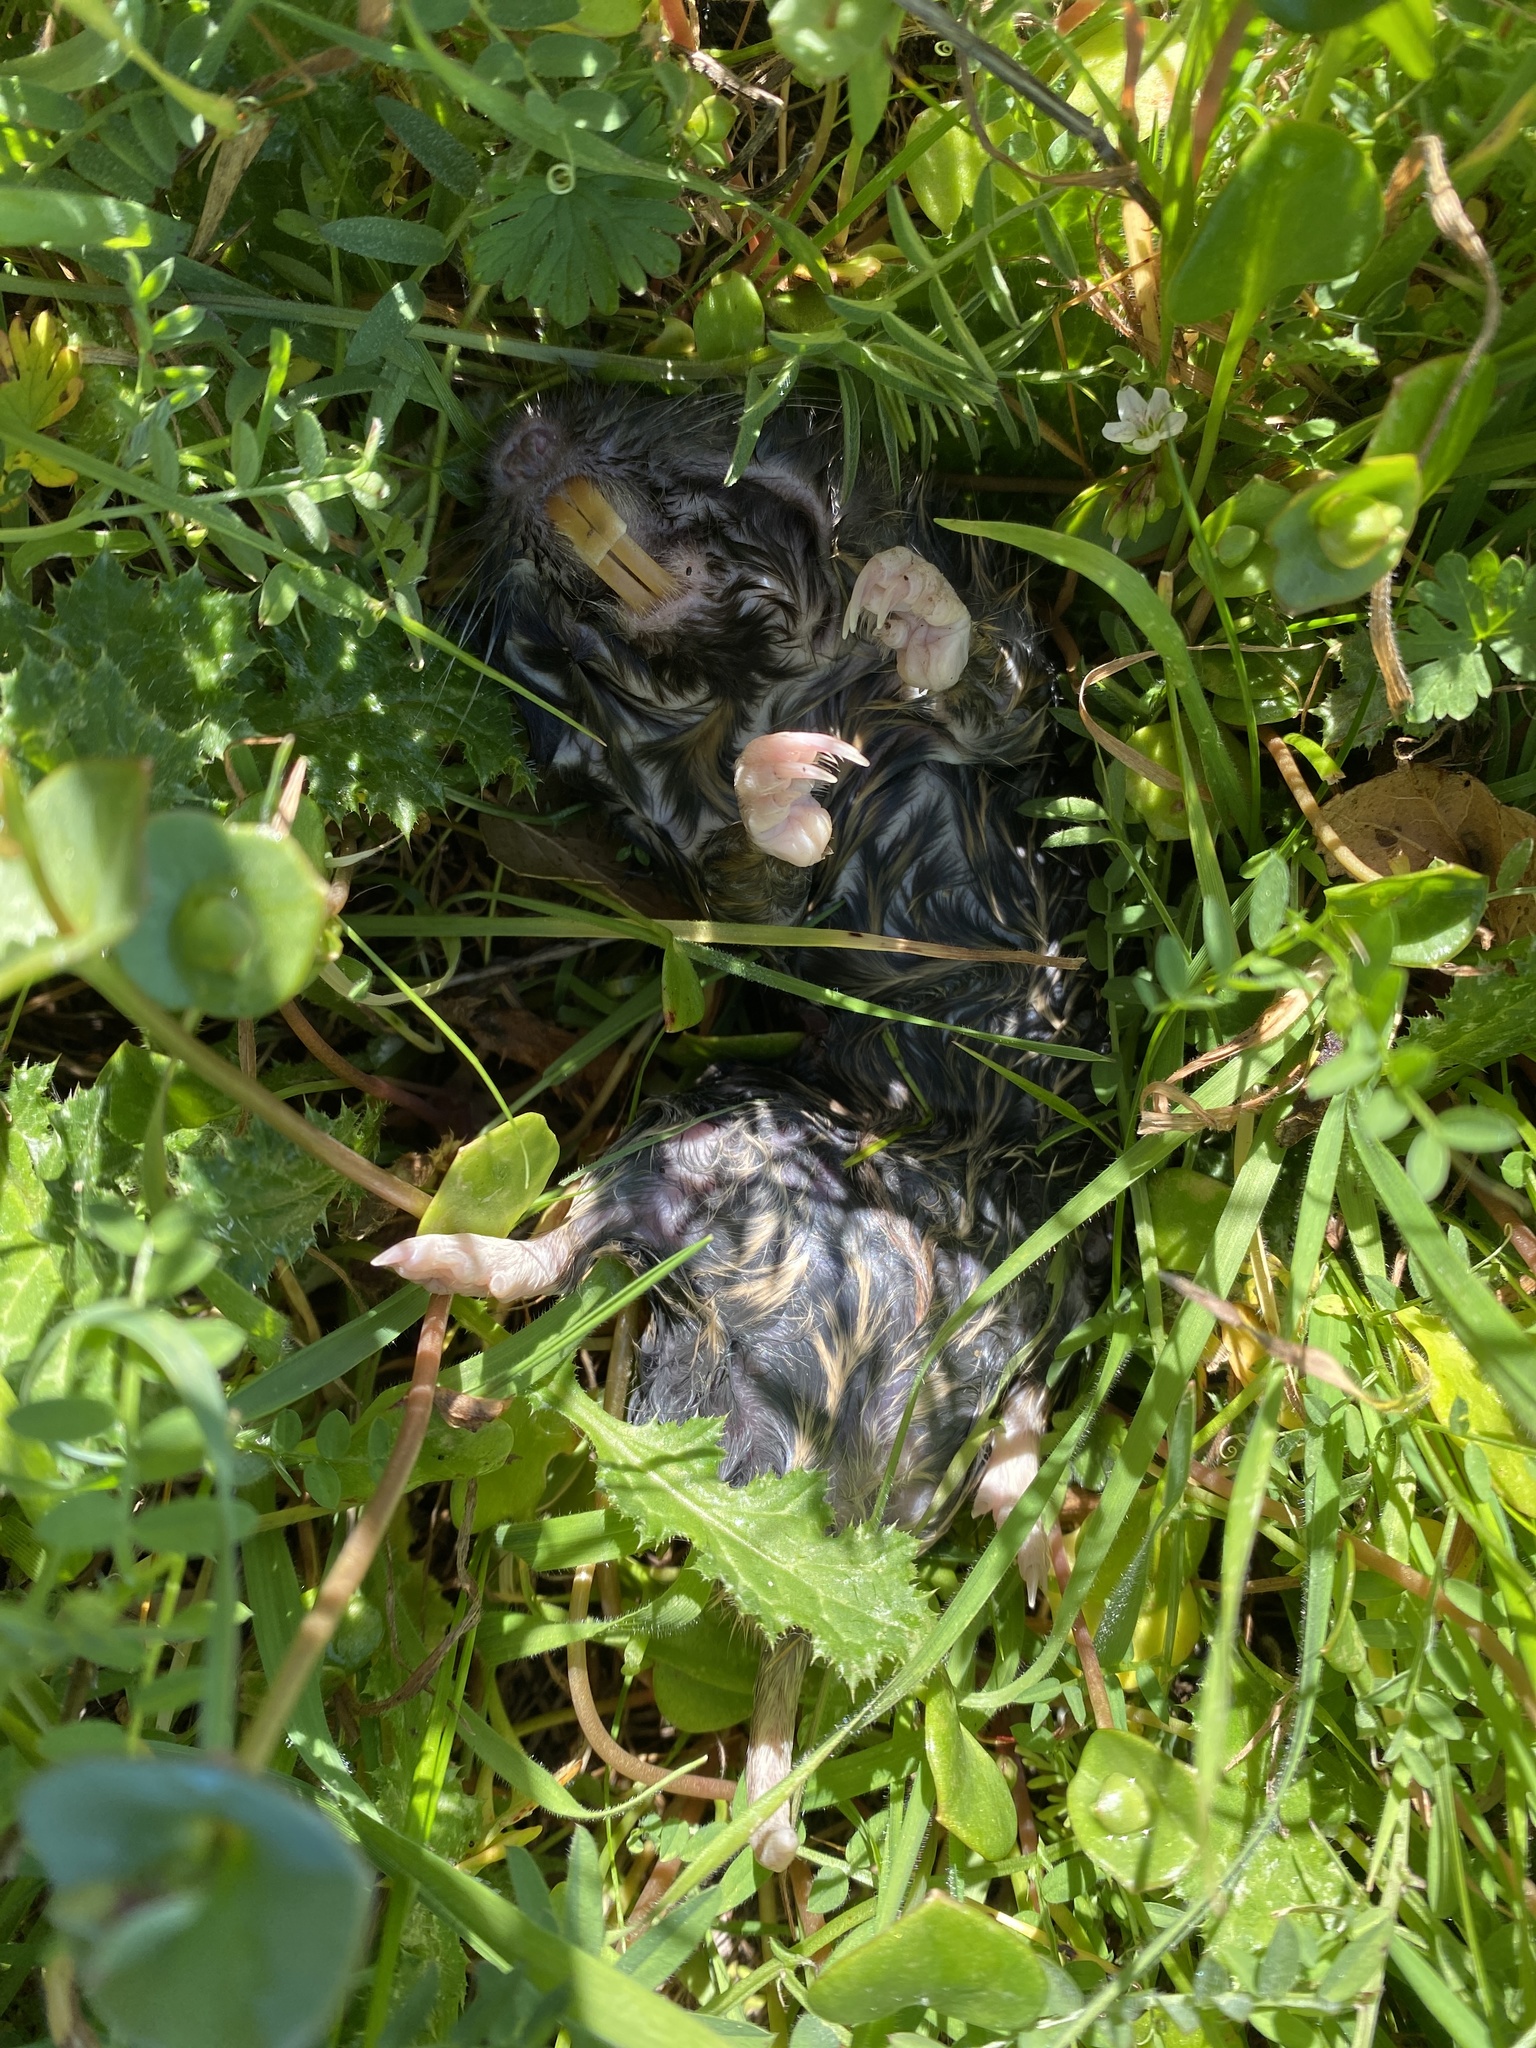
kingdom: Animalia
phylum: Chordata
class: Mammalia
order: Rodentia
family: Geomyidae
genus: Thomomys
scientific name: Thomomys bottae
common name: Botta's pocket gopher
